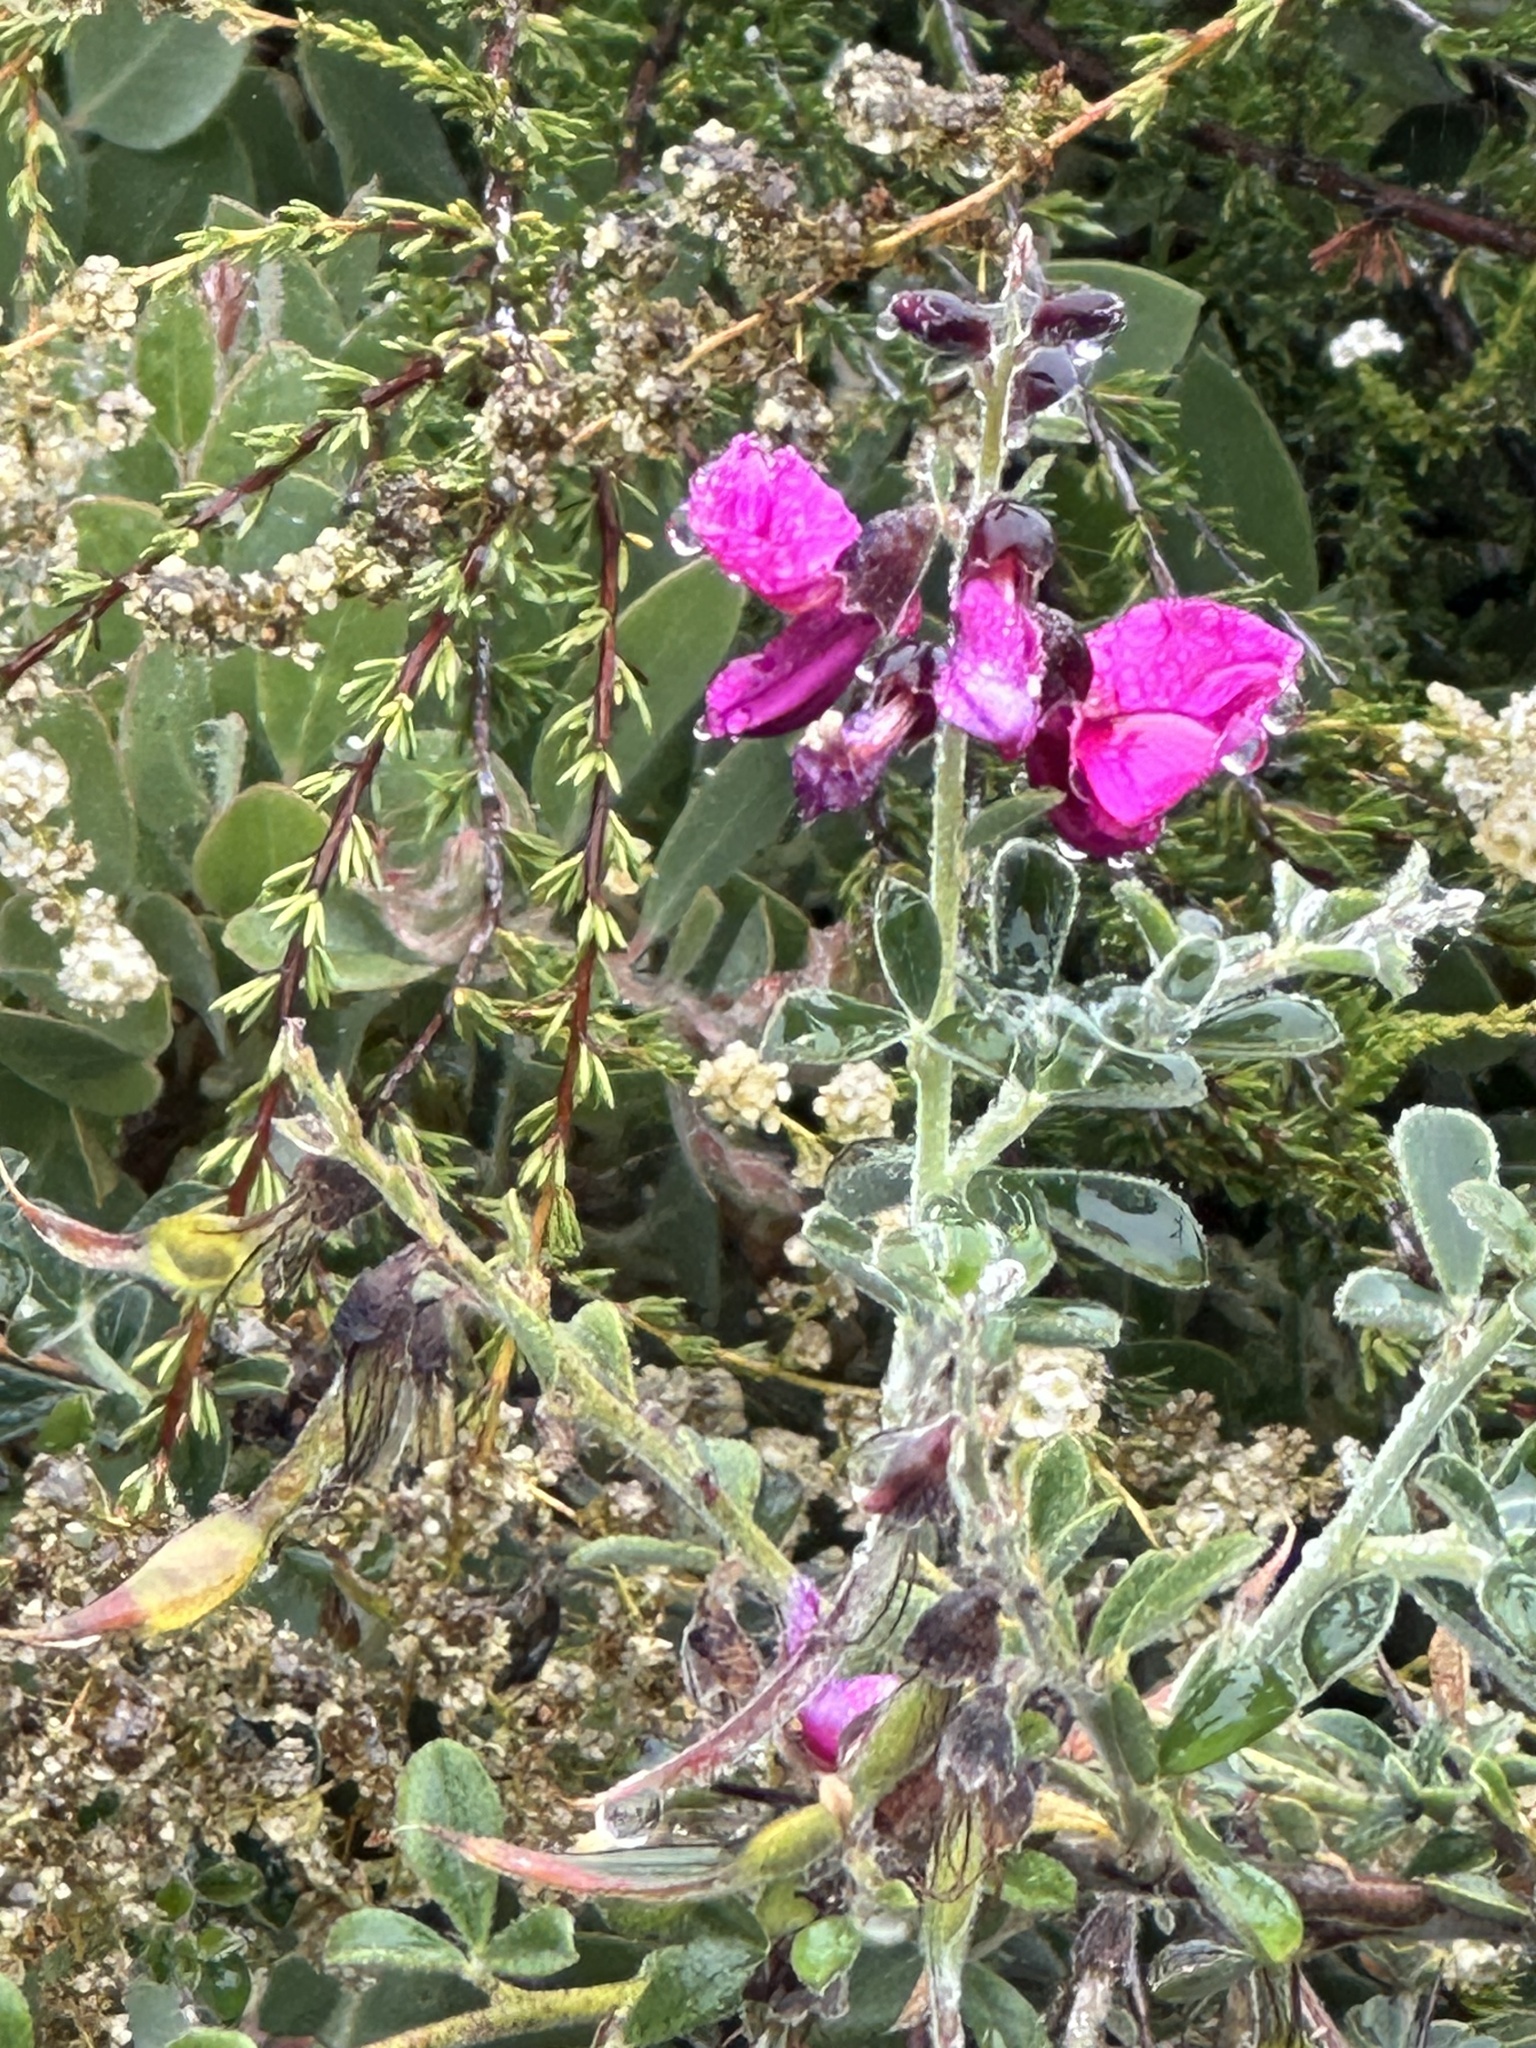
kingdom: Plantae
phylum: Tracheophyta
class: Magnoliopsida
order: Fabales
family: Fabaceae
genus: Pickeringia
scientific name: Pickeringia montana
